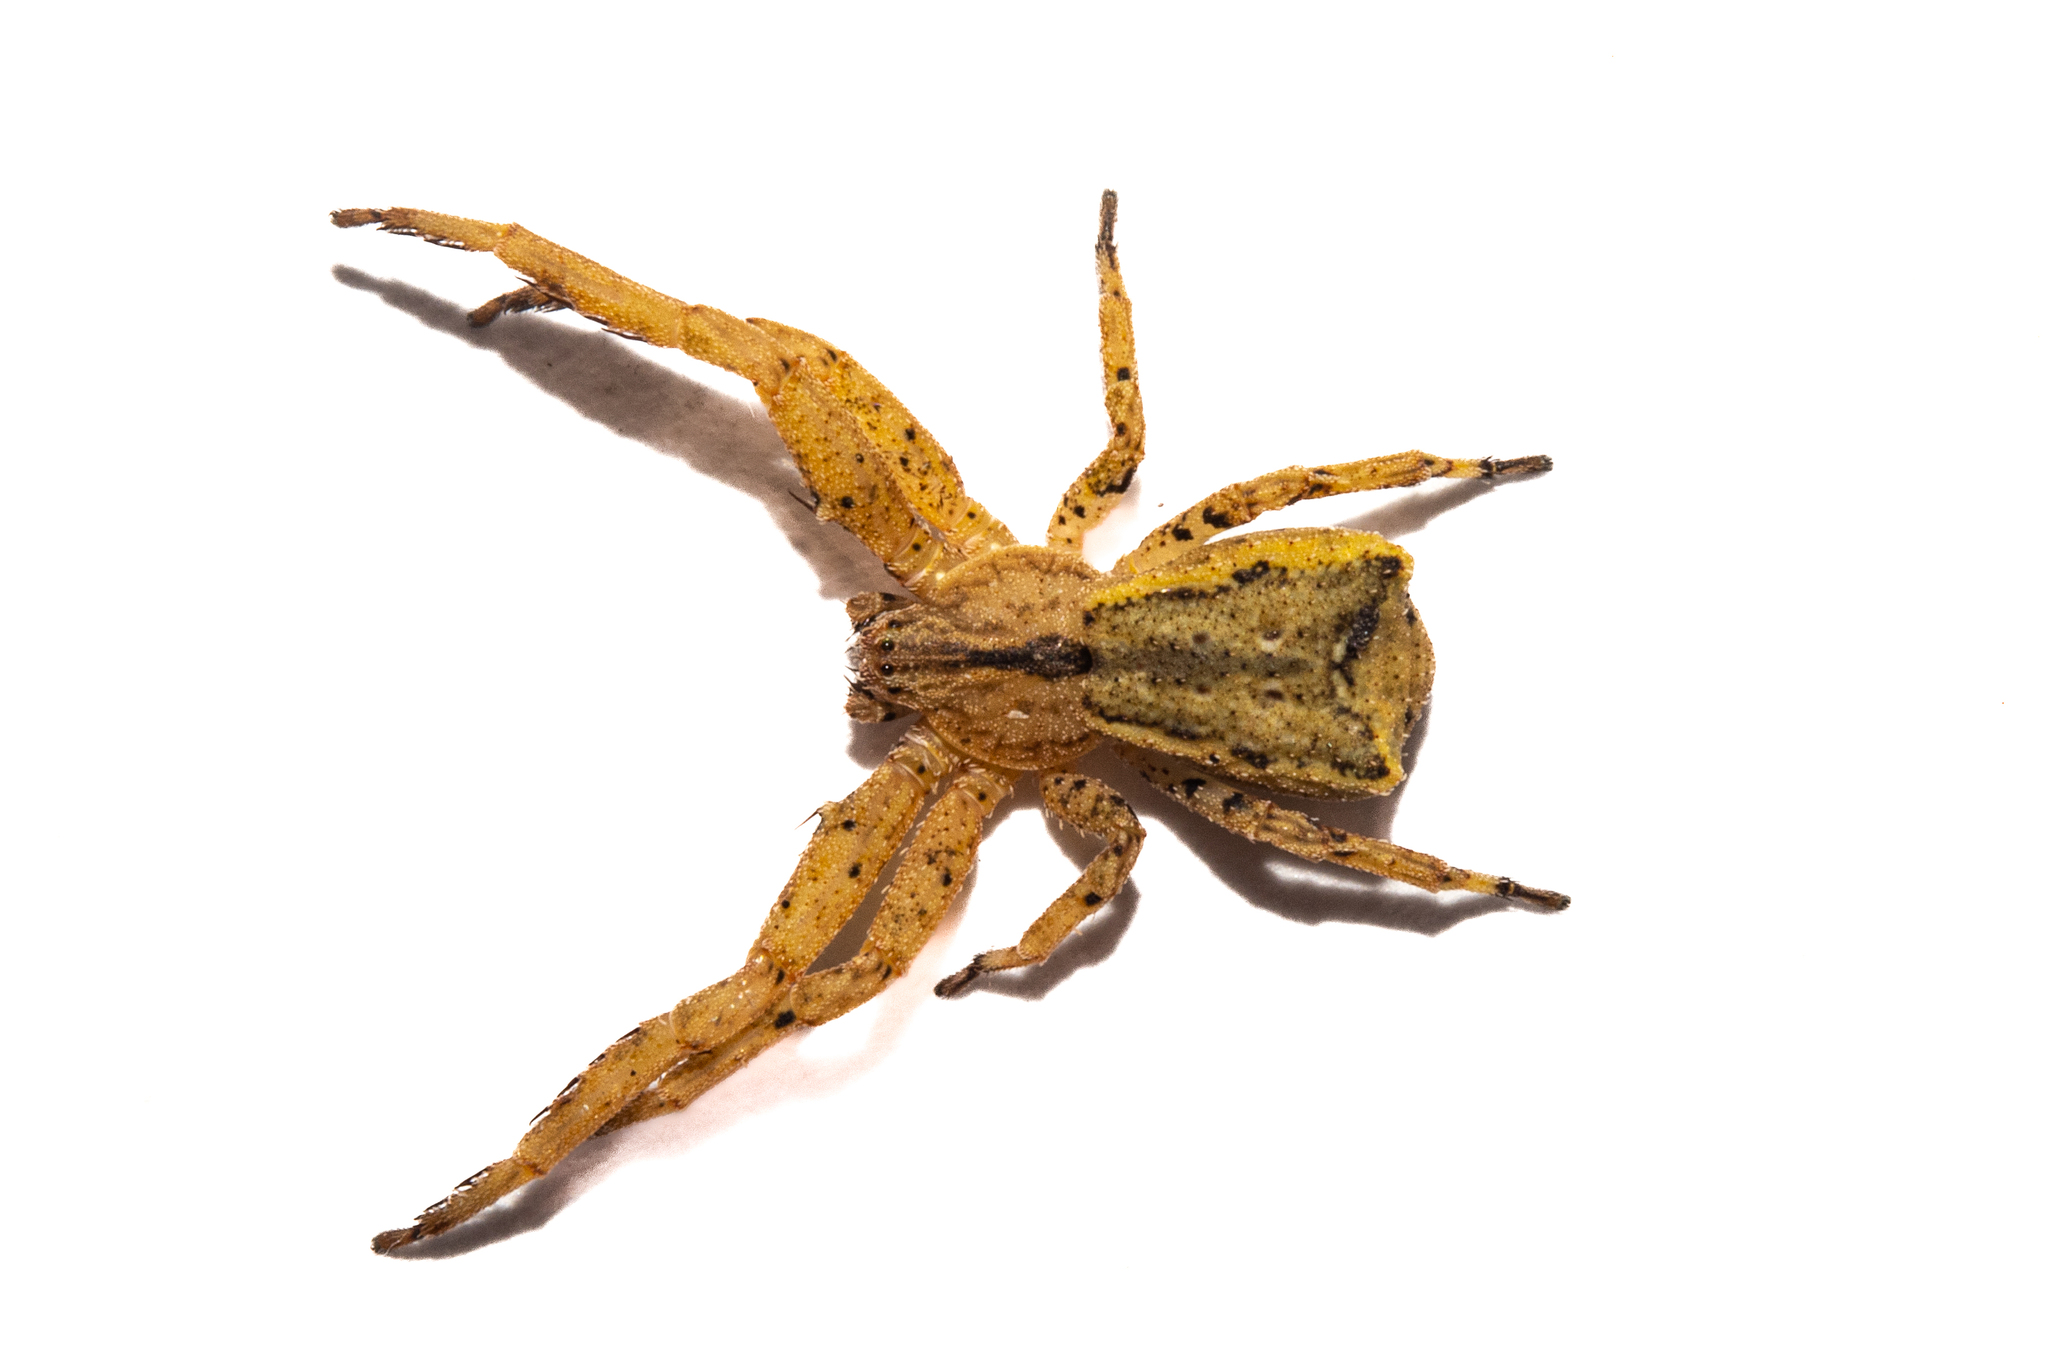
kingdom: Animalia
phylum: Arthropoda
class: Arachnida
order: Araneae
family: Thomisidae
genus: Sidymella
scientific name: Sidymella angulata
